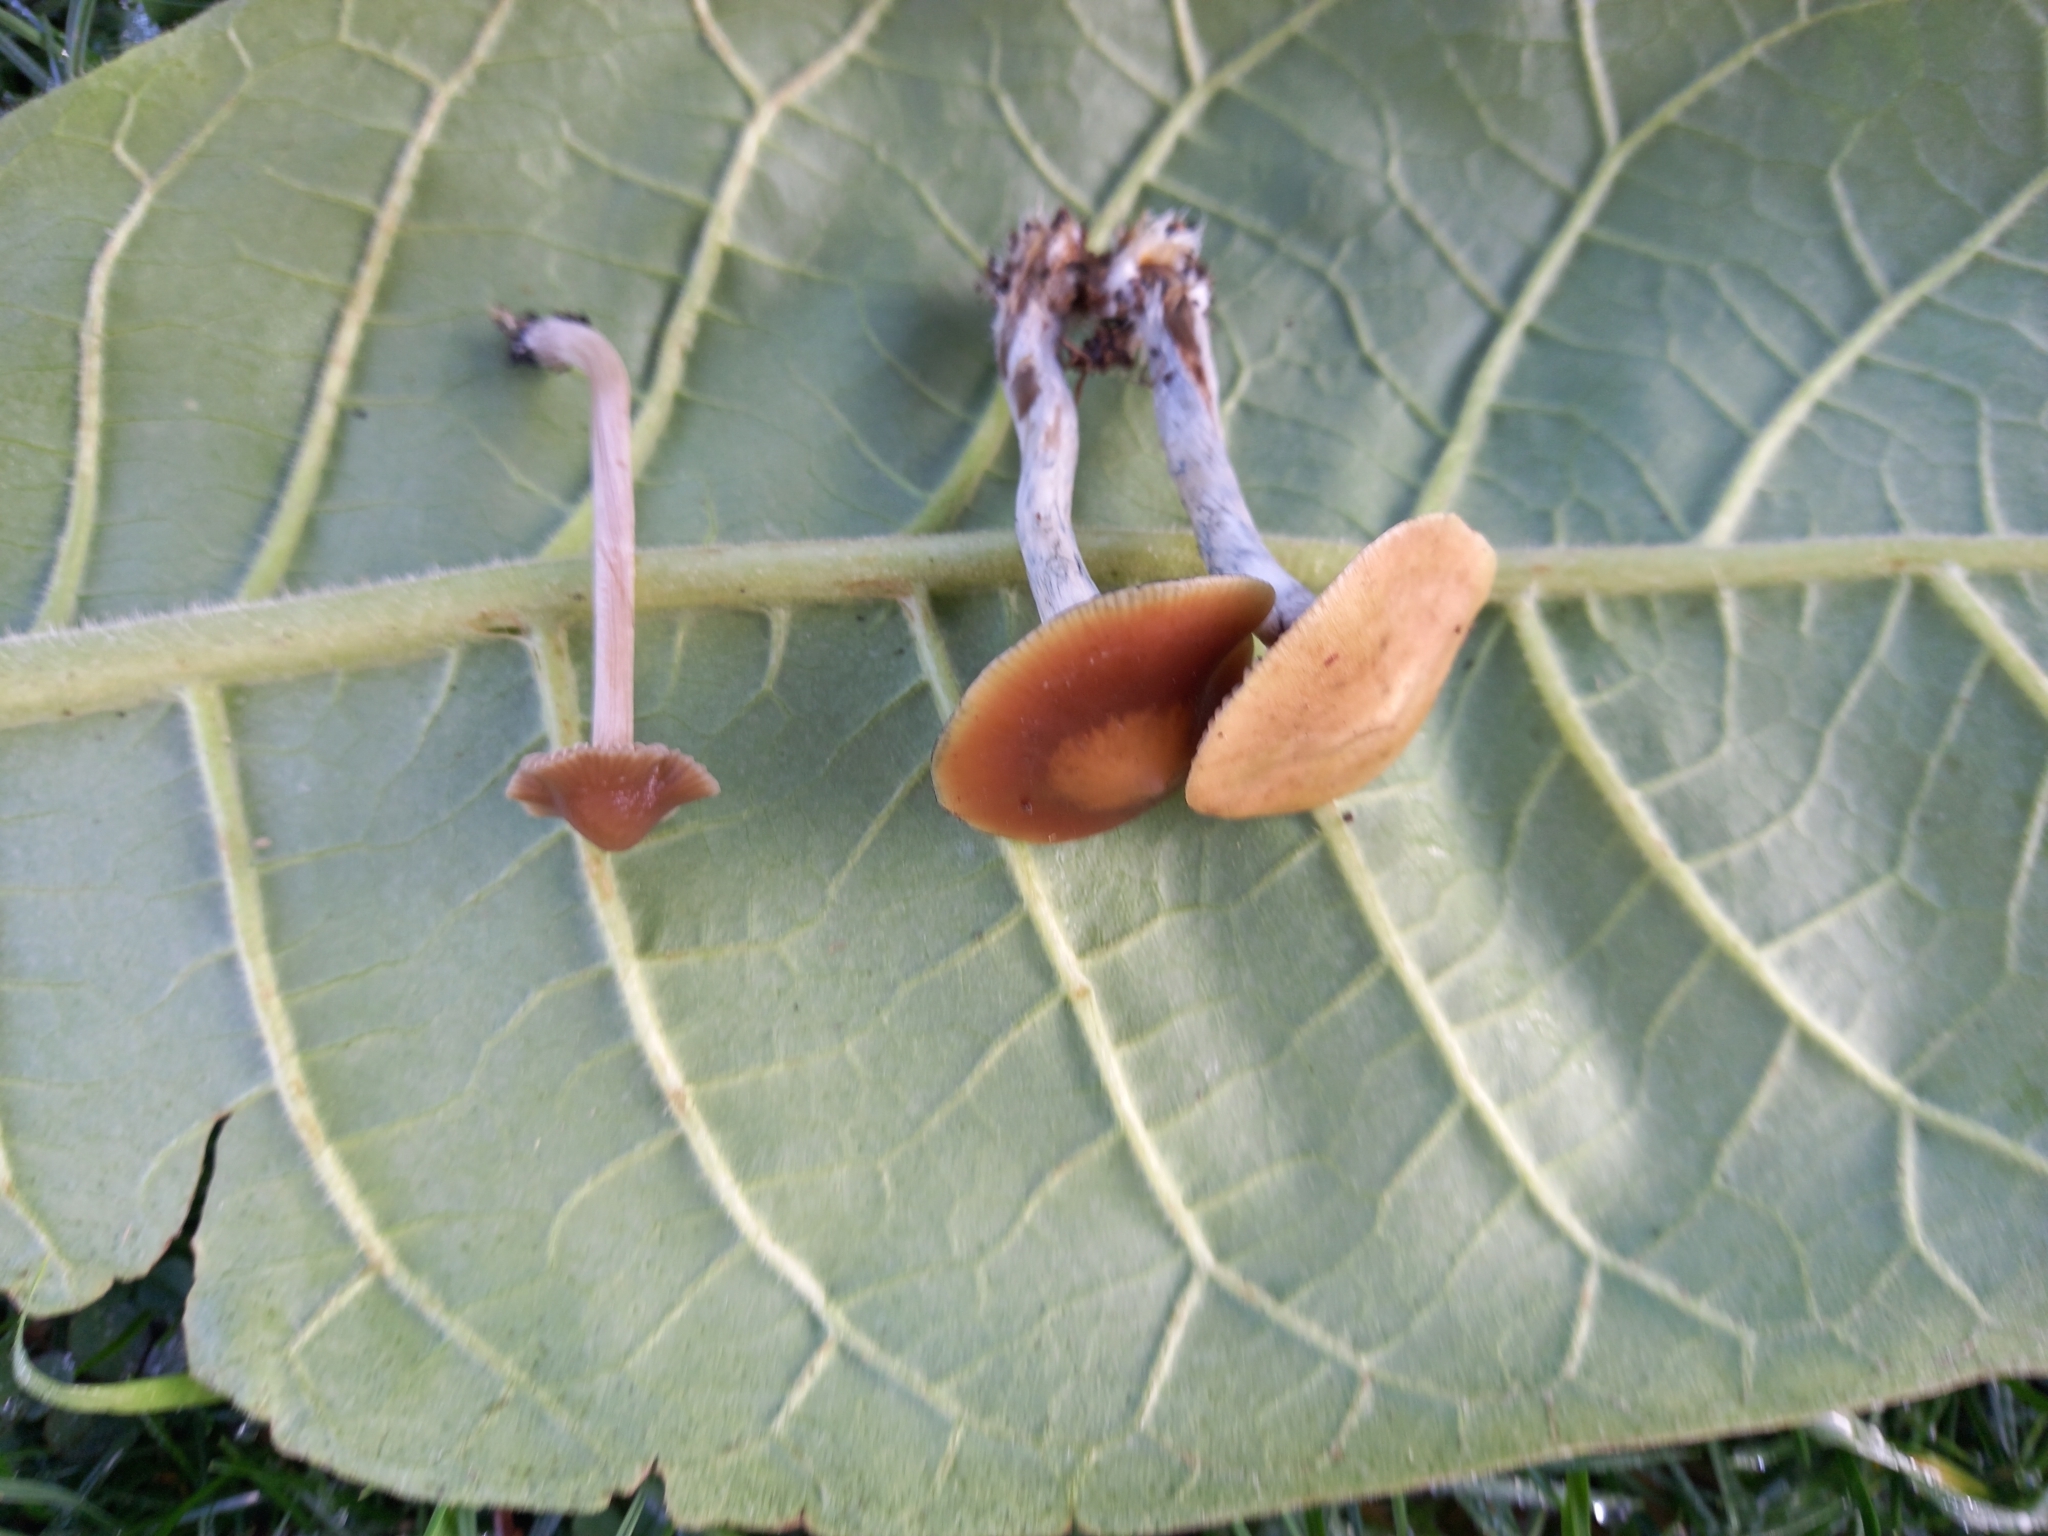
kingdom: Fungi
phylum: Basidiomycota
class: Agaricomycetes
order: Agaricales
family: Hymenogastraceae
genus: Psilocybe
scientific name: Psilocybe tasmaniana
